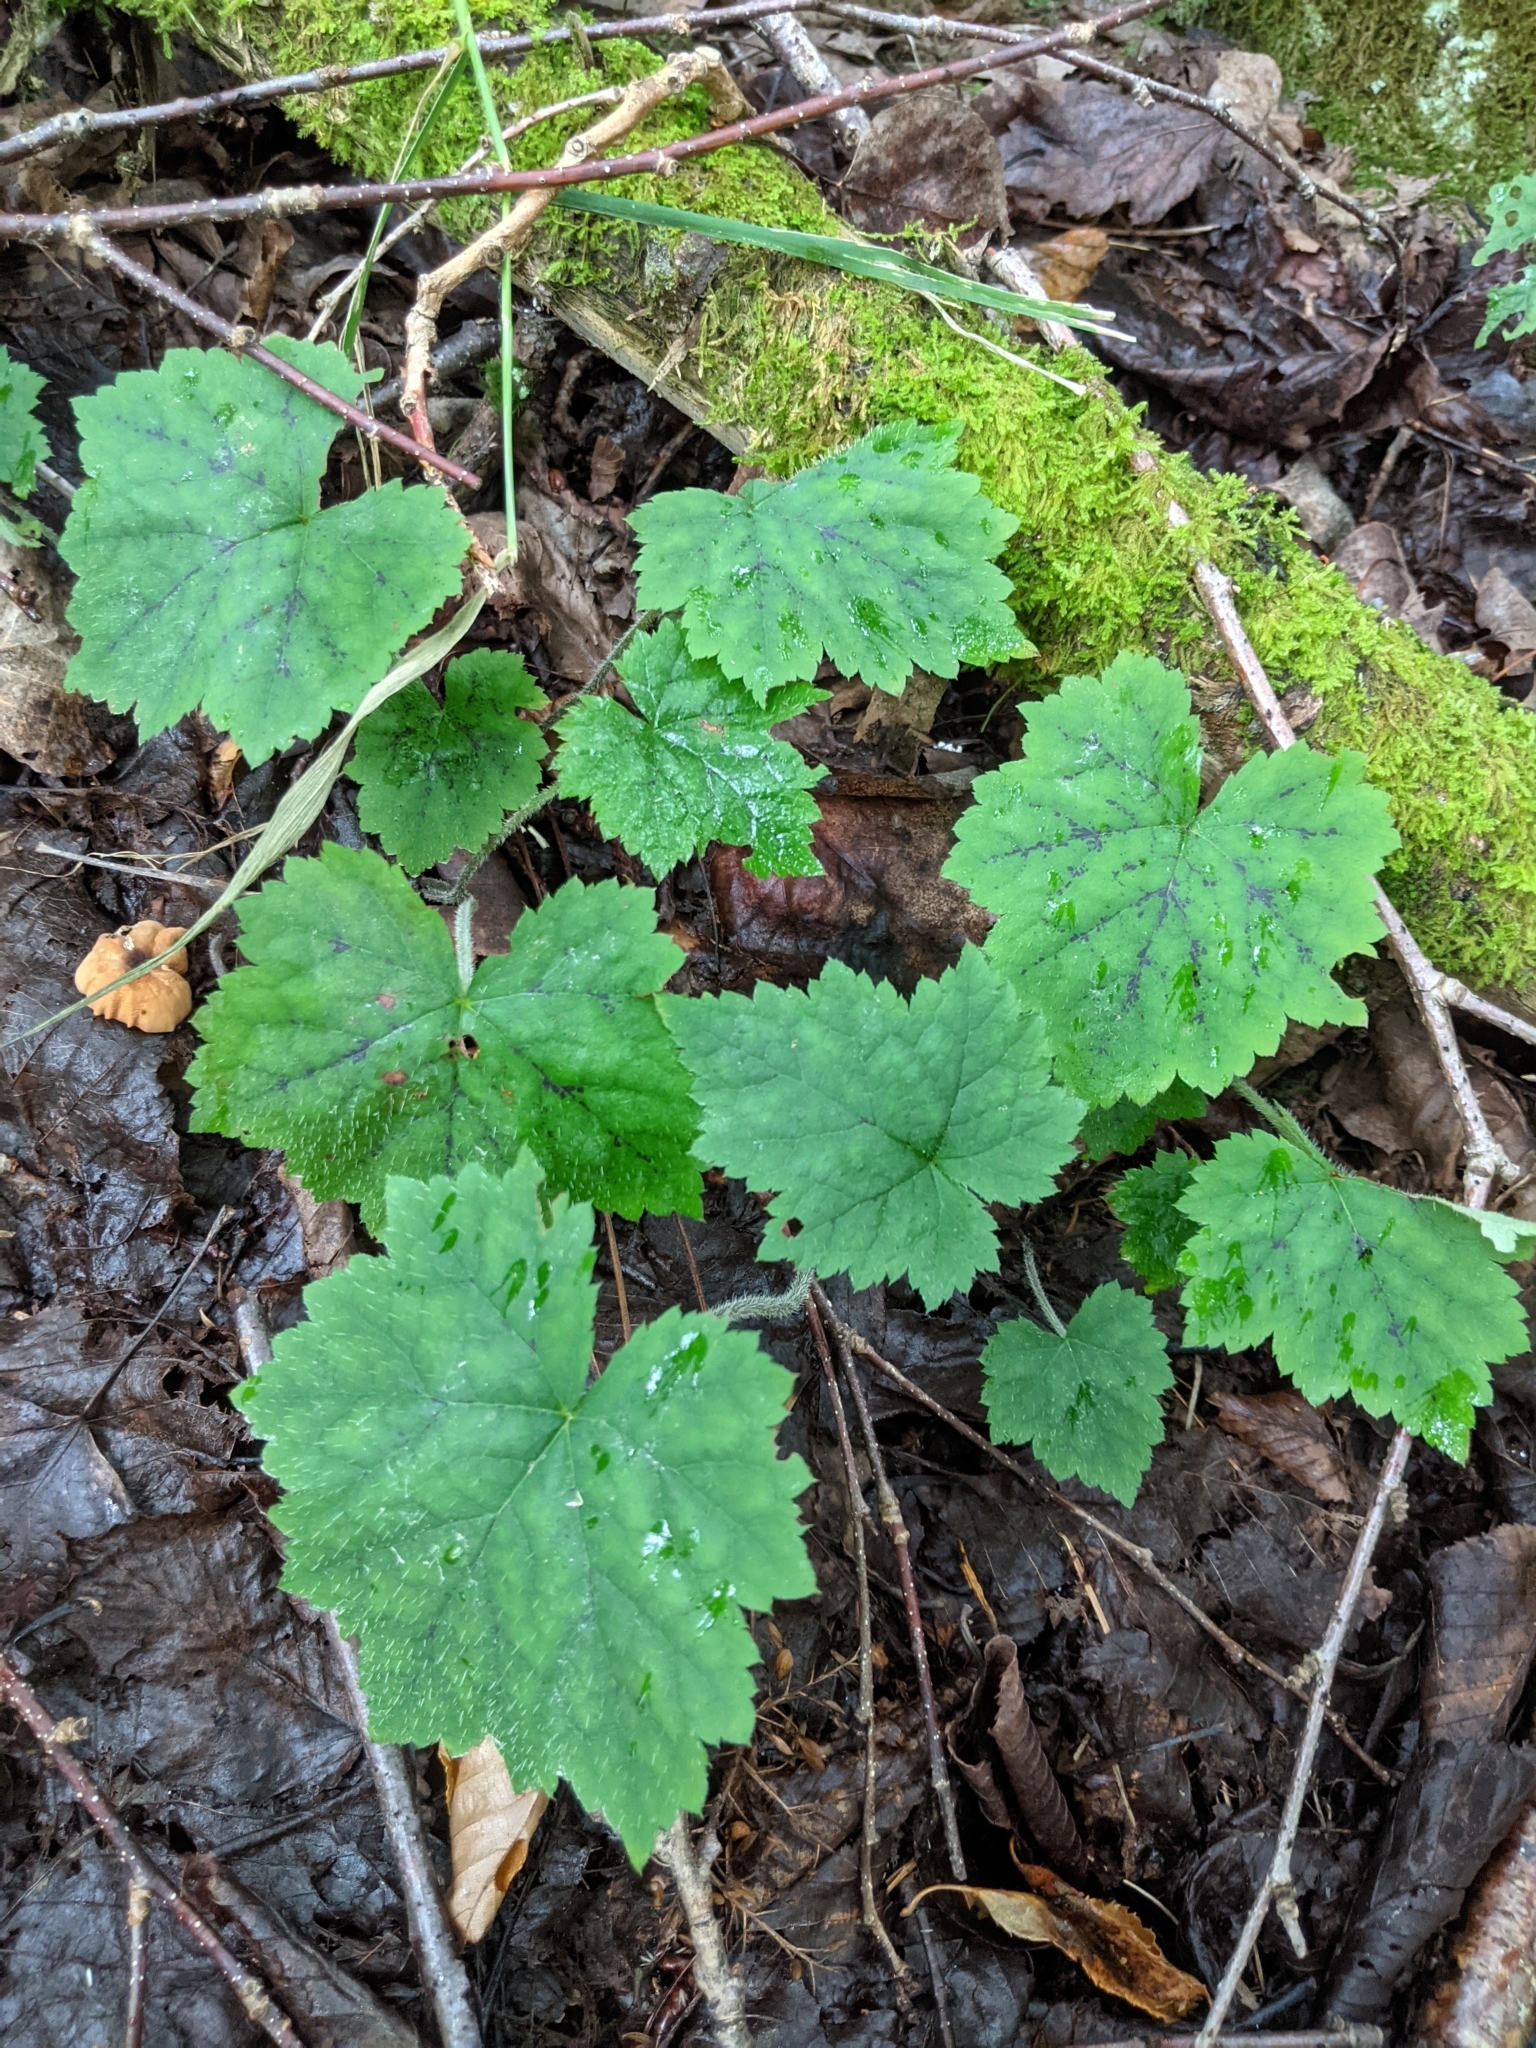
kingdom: Plantae
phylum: Tracheophyta
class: Magnoliopsida
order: Saxifragales
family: Saxifragaceae
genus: Tiarella
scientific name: Tiarella stolonifera
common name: Stoloniferous foamflower
